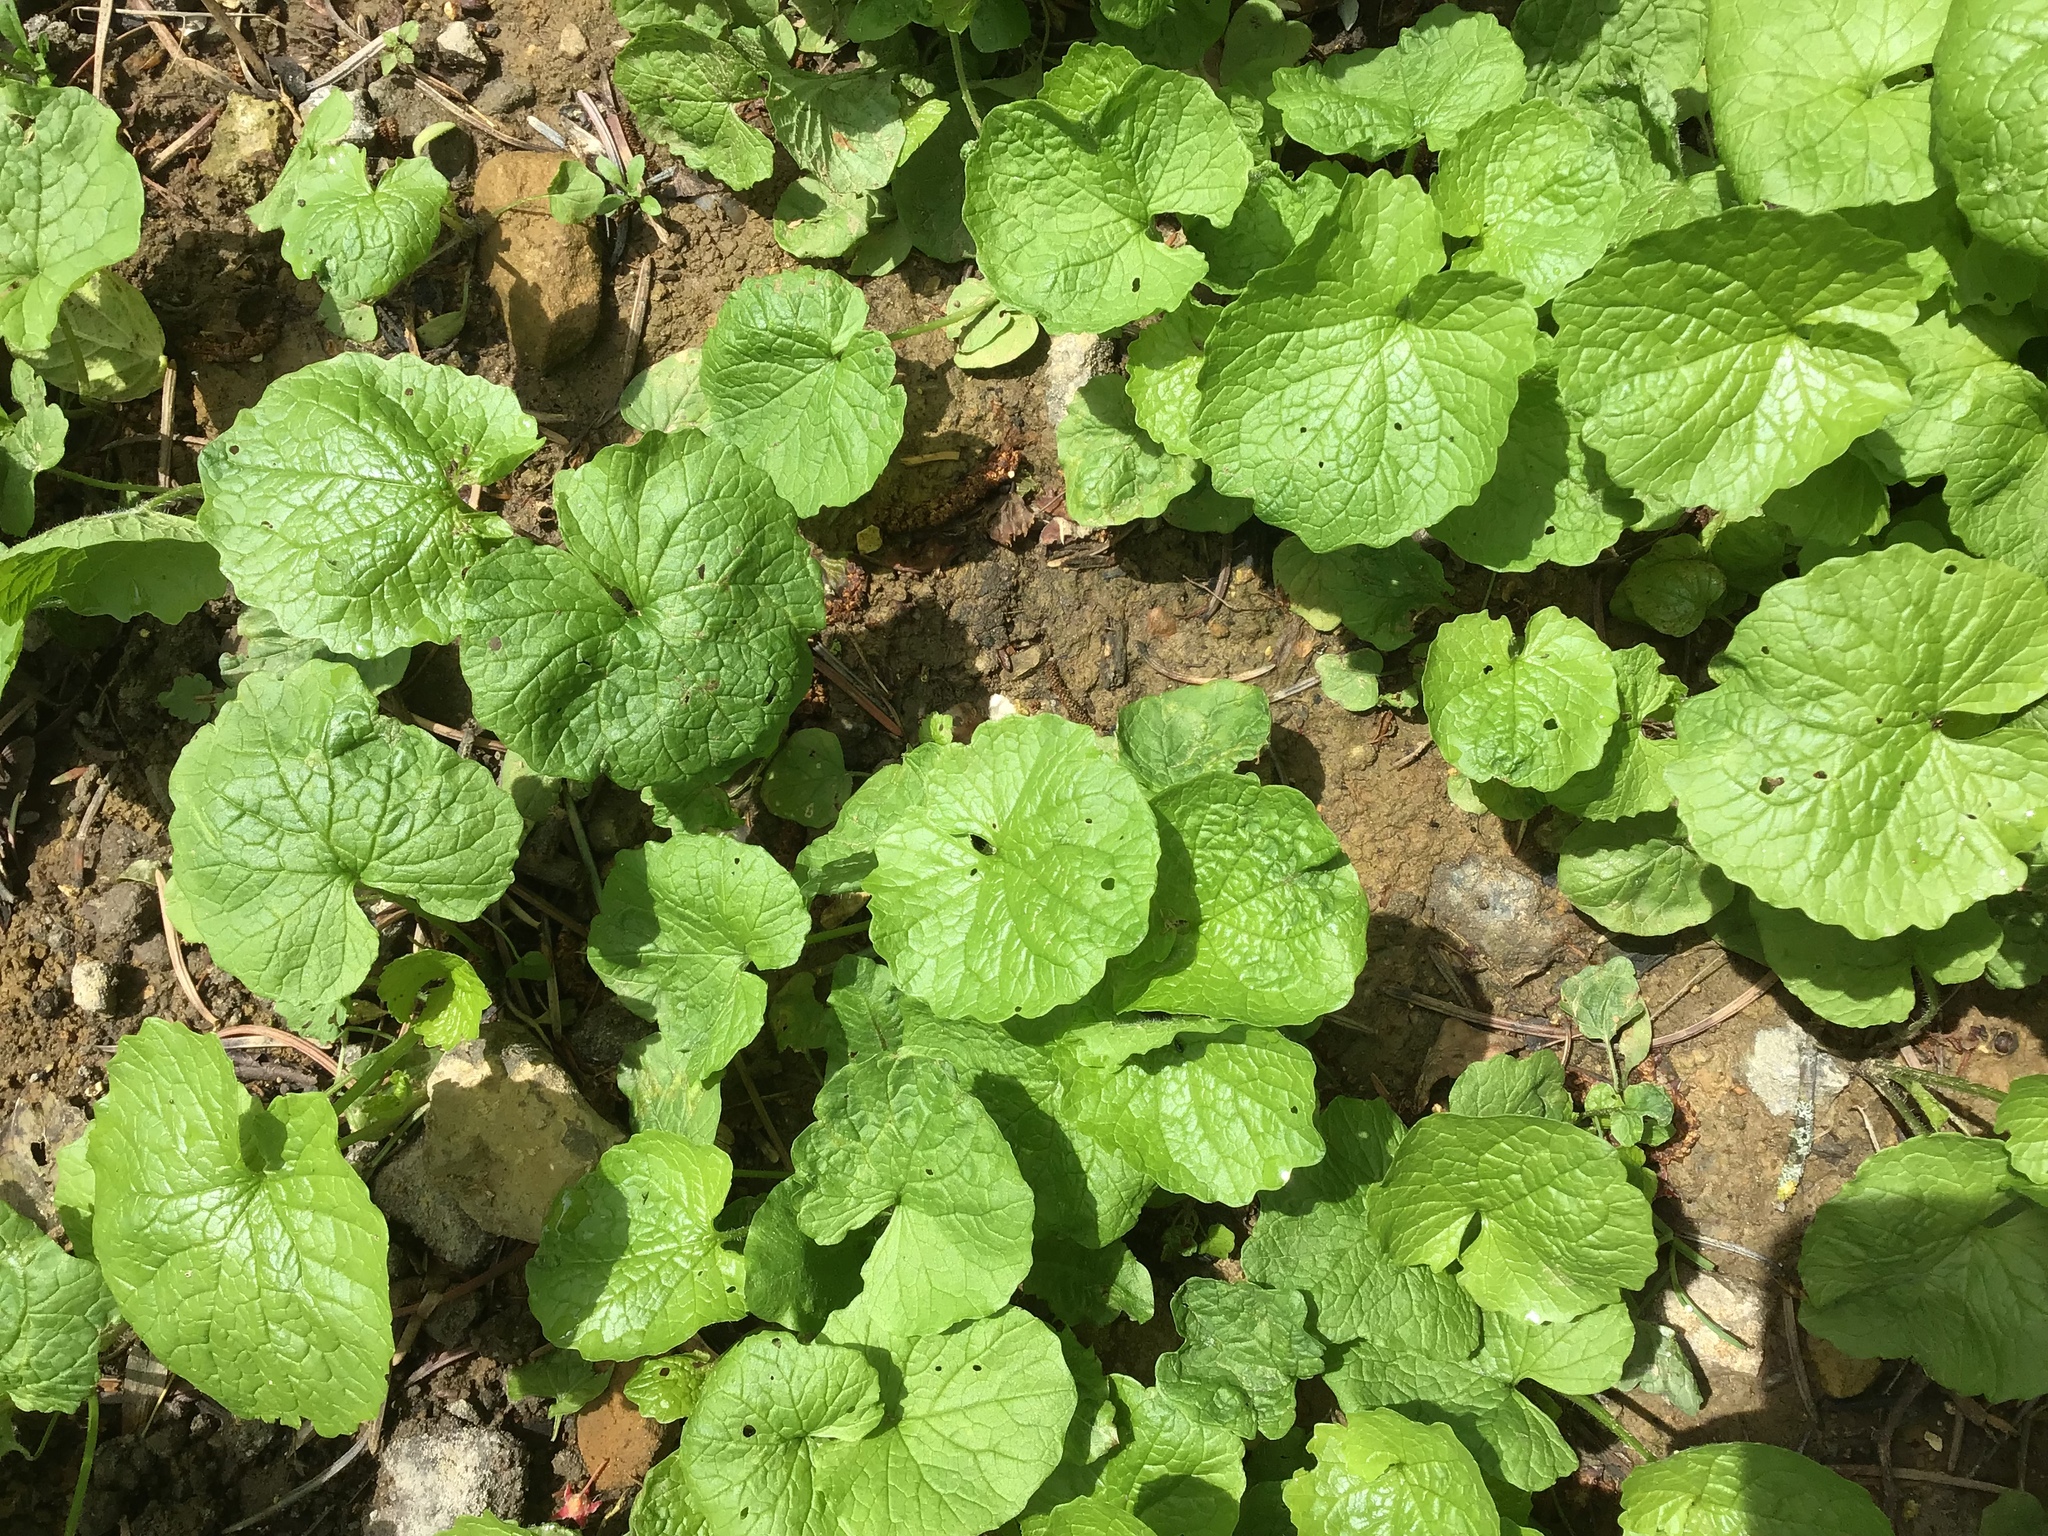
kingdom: Plantae
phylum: Tracheophyta
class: Magnoliopsida
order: Brassicales
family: Brassicaceae
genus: Alliaria
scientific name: Alliaria petiolata
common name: Garlic mustard
